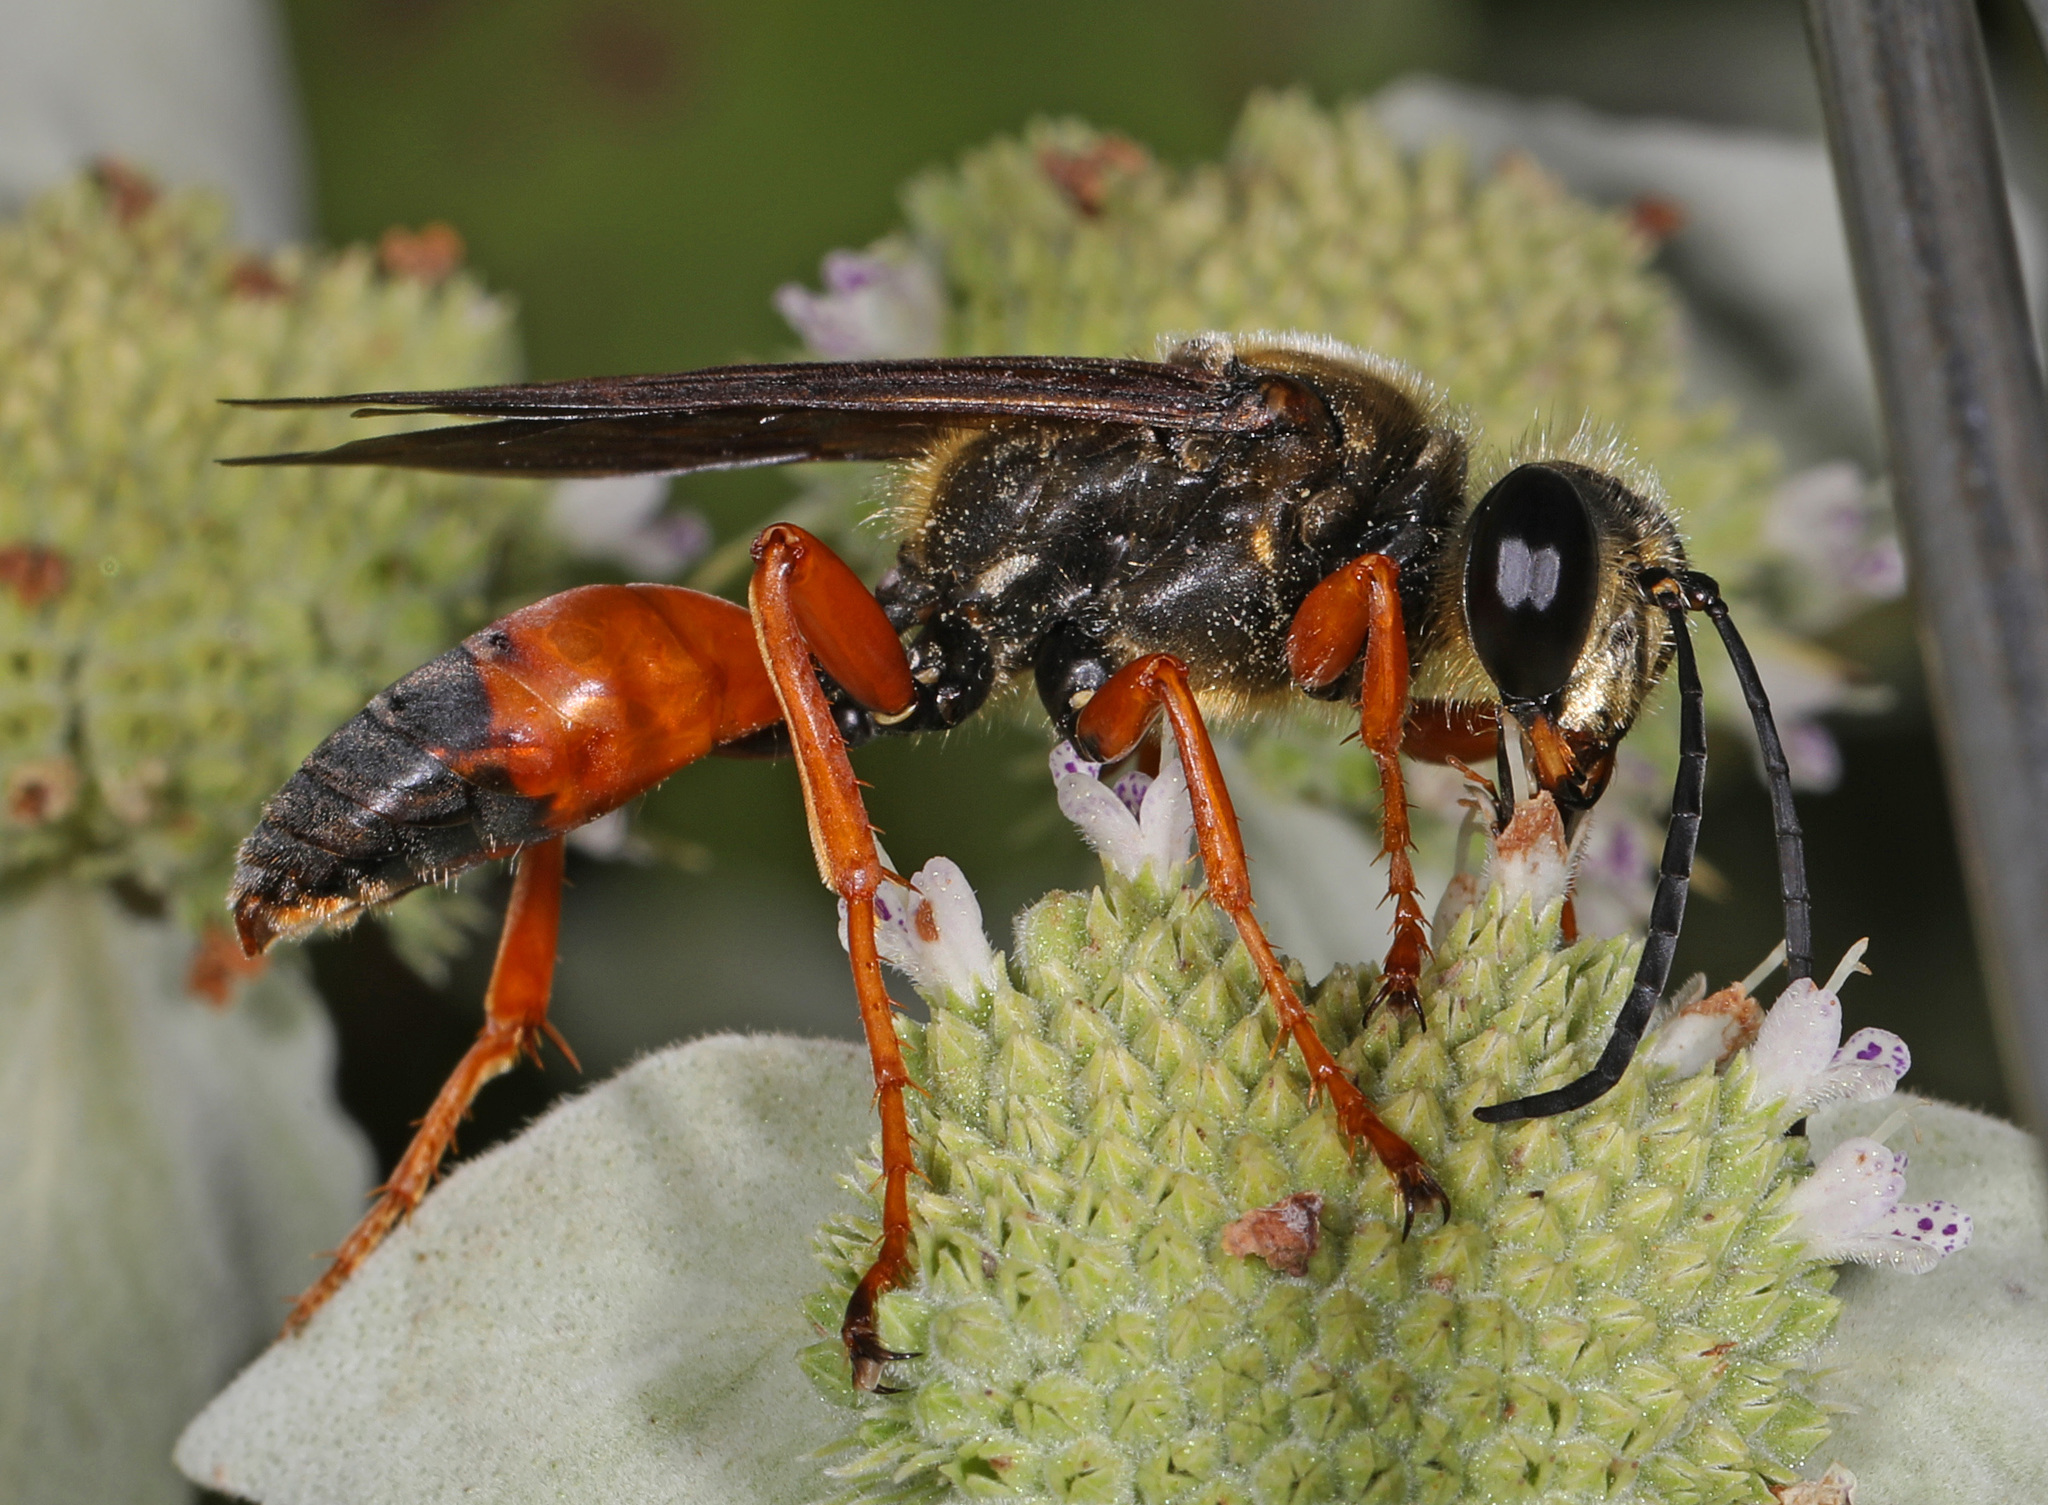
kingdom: Animalia
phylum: Arthropoda
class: Insecta
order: Hymenoptera
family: Sphecidae
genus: Sphex
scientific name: Sphex ichneumoneus
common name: Great golden digger wasp
